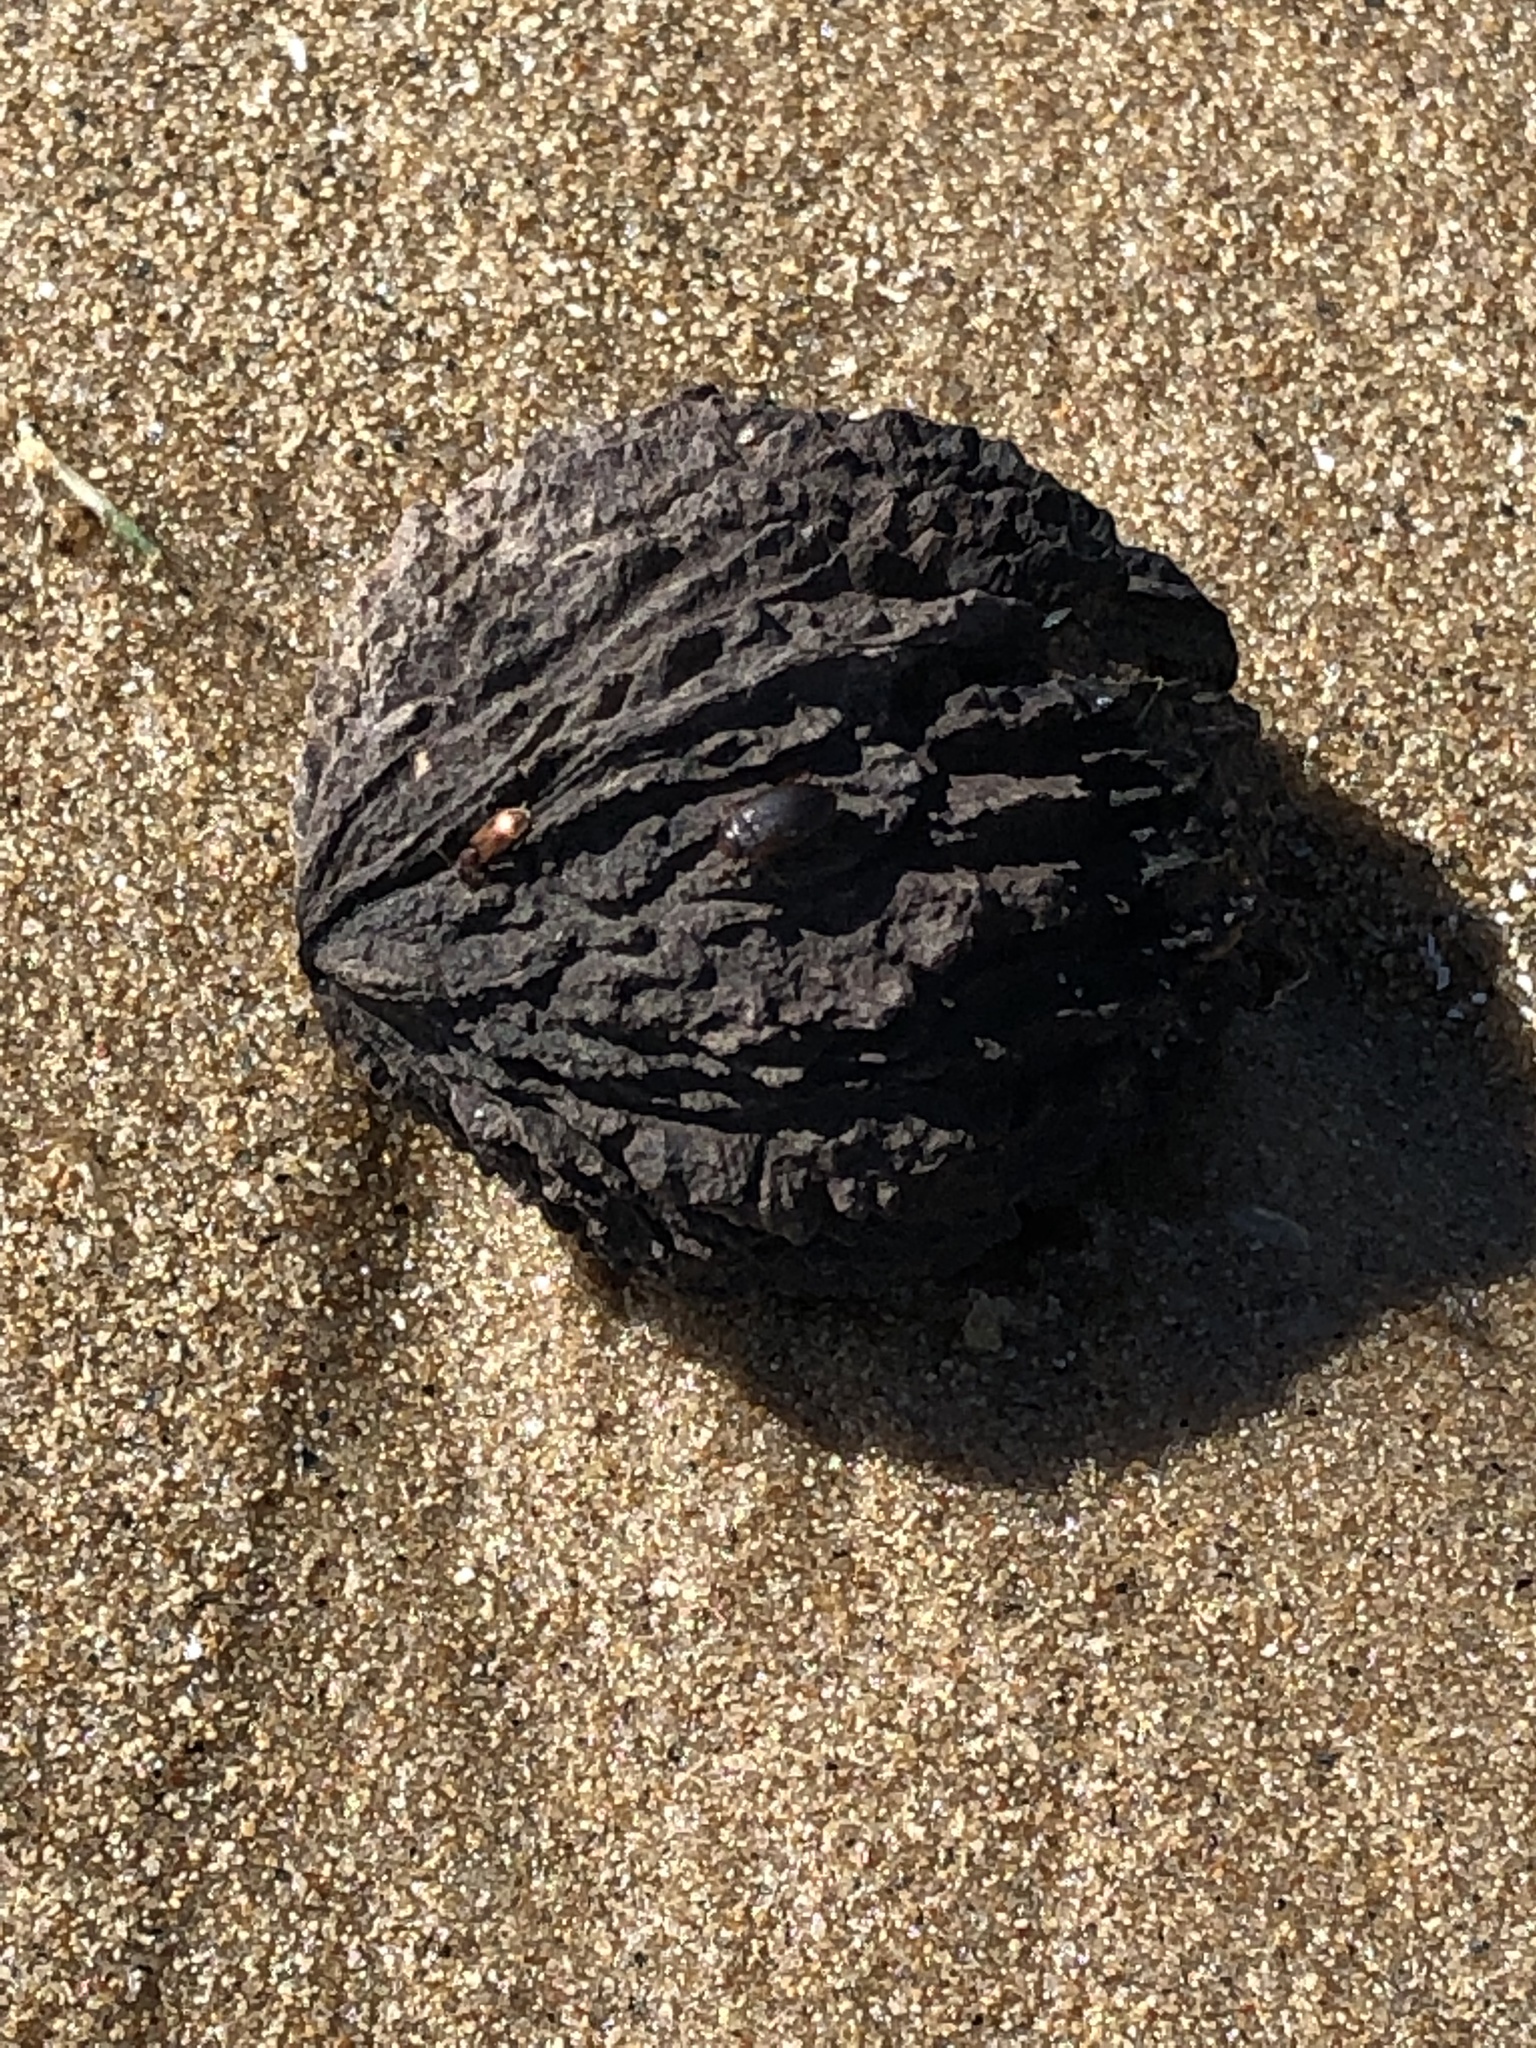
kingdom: Plantae
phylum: Tracheophyta
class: Magnoliopsida
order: Fagales
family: Juglandaceae
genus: Juglans
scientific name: Juglans nigra
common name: Black walnut
